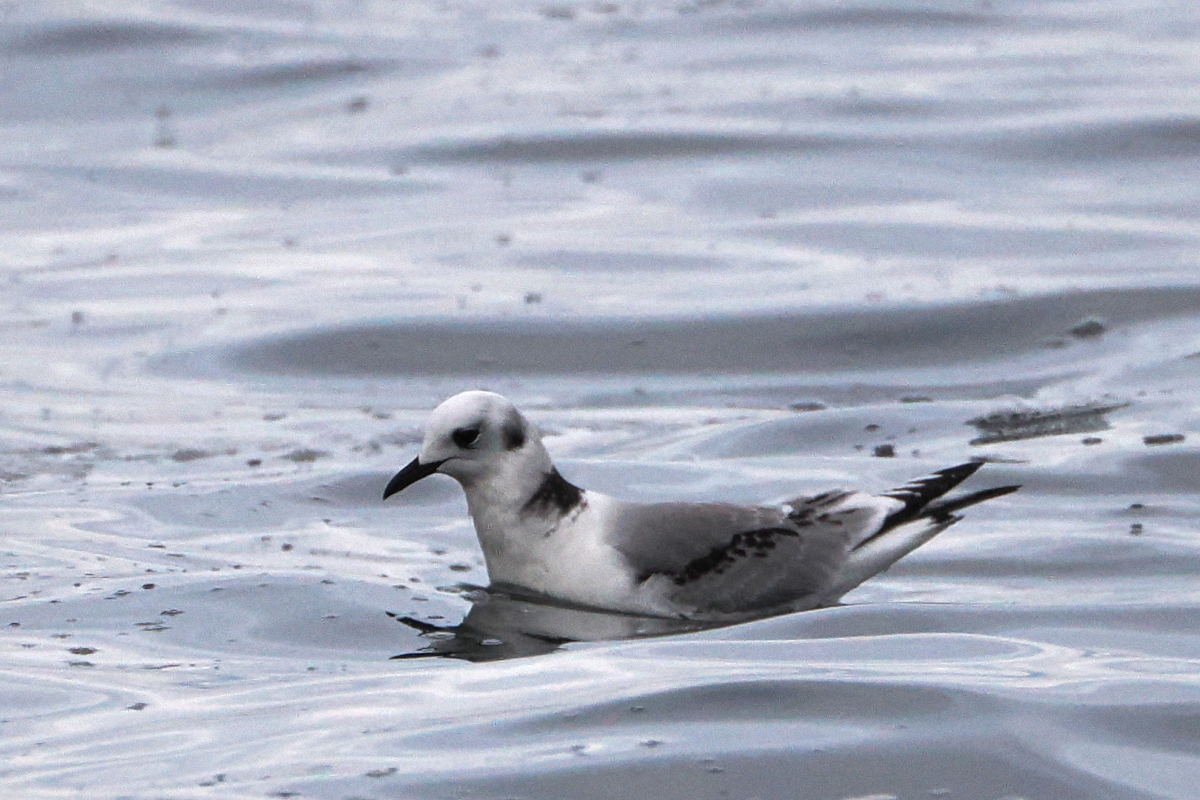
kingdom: Animalia
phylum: Chordata
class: Aves
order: Charadriiformes
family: Laridae
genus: Rissa
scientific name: Rissa tridactyla
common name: Black-legged kittiwake
